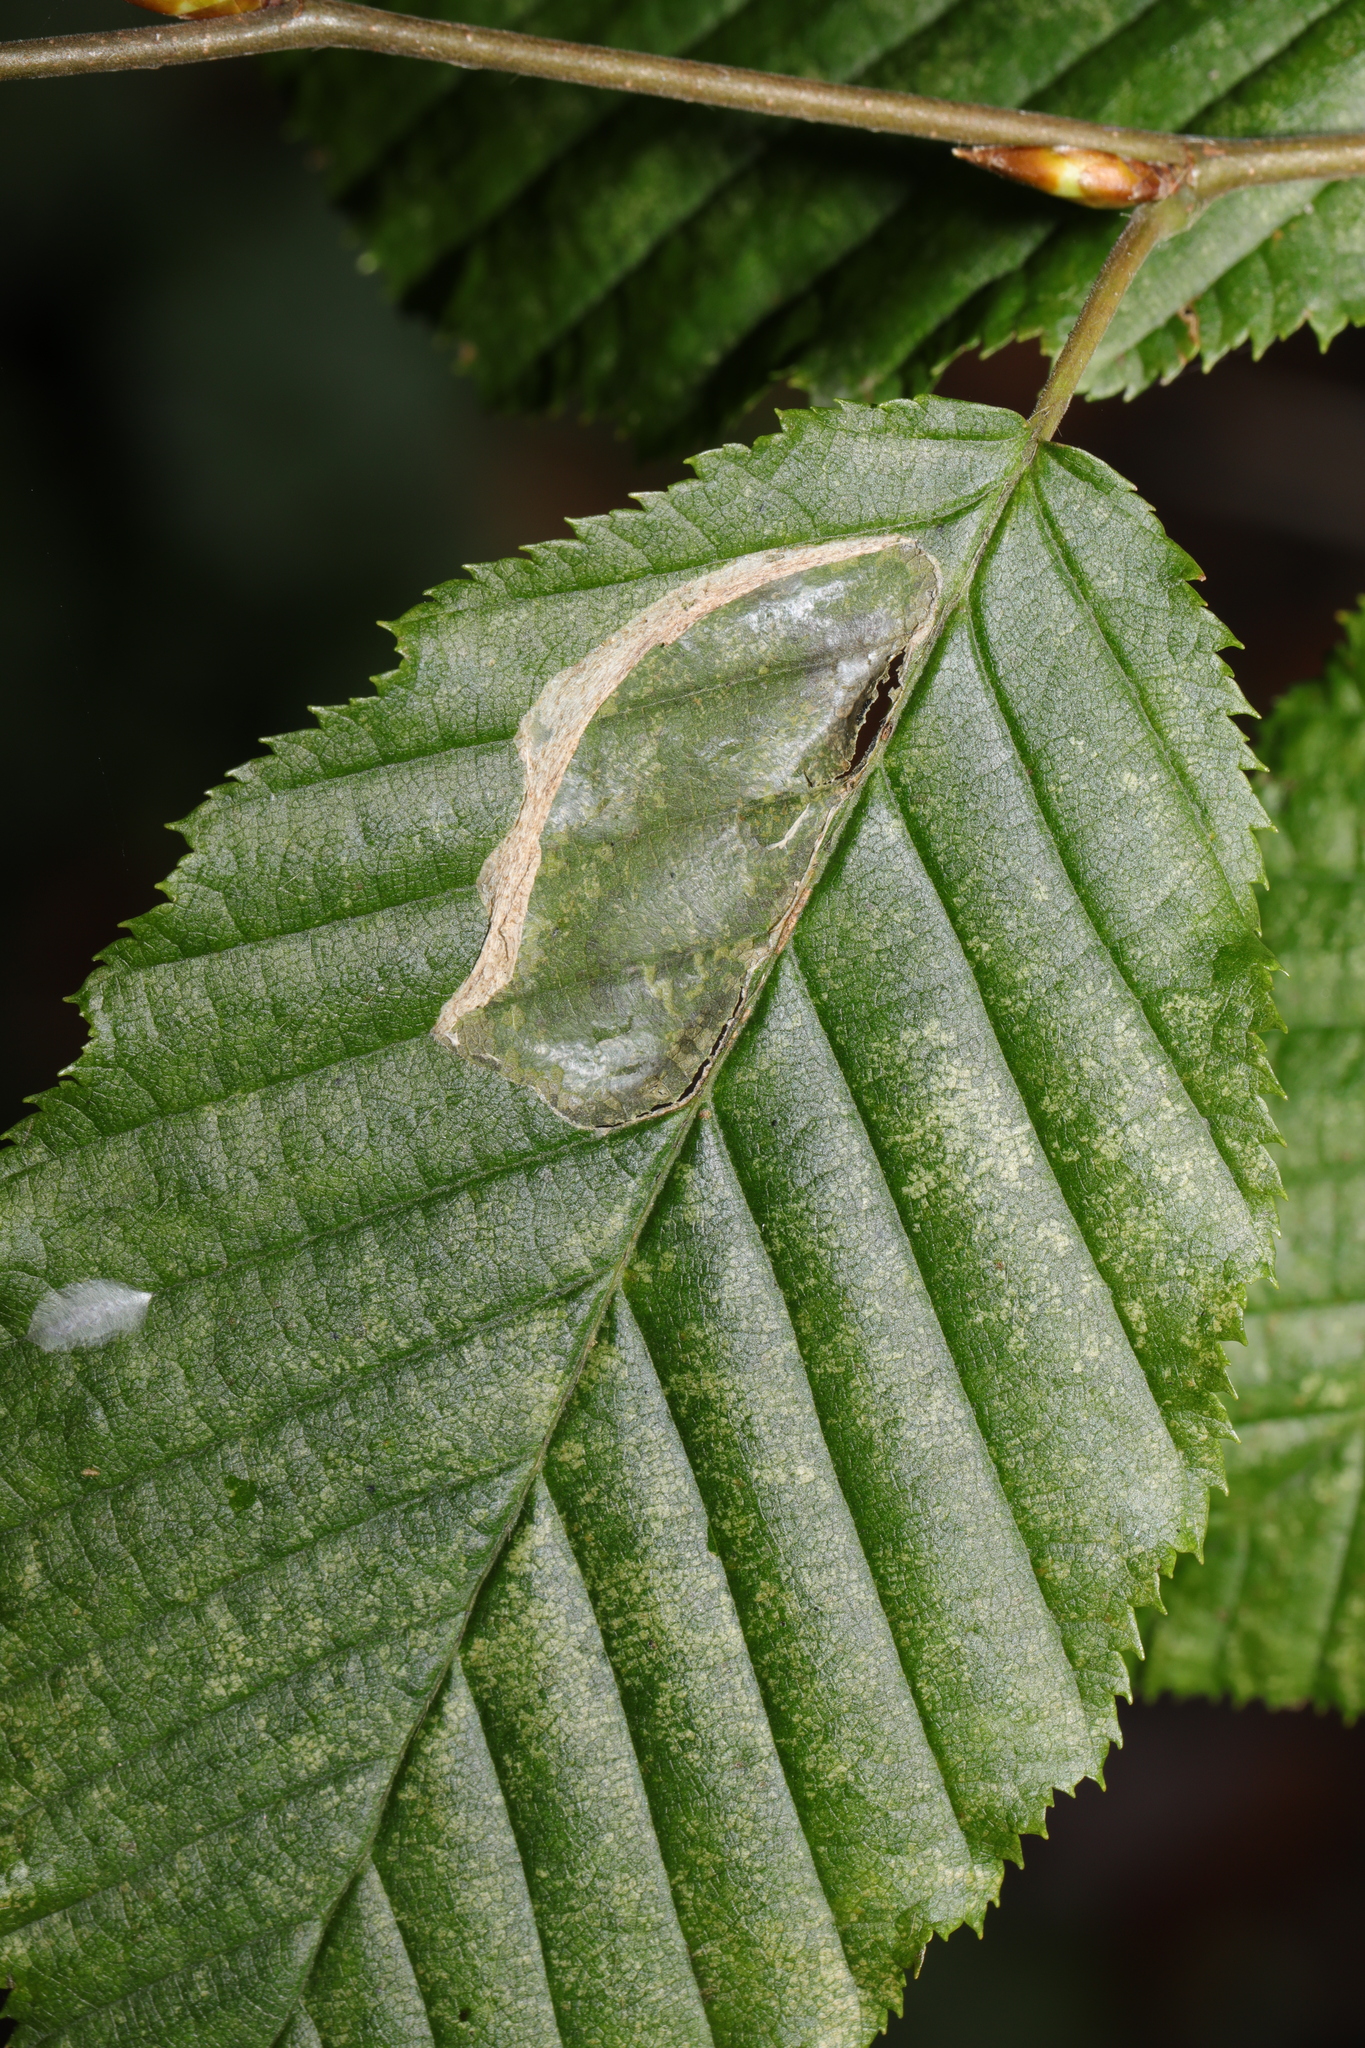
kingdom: Animalia
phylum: Arthropoda
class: Insecta
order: Lepidoptera
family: Gracillariidae
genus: Phyllonorycter
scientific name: Phyllonorycter esperella
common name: Dark hornbeam midget
